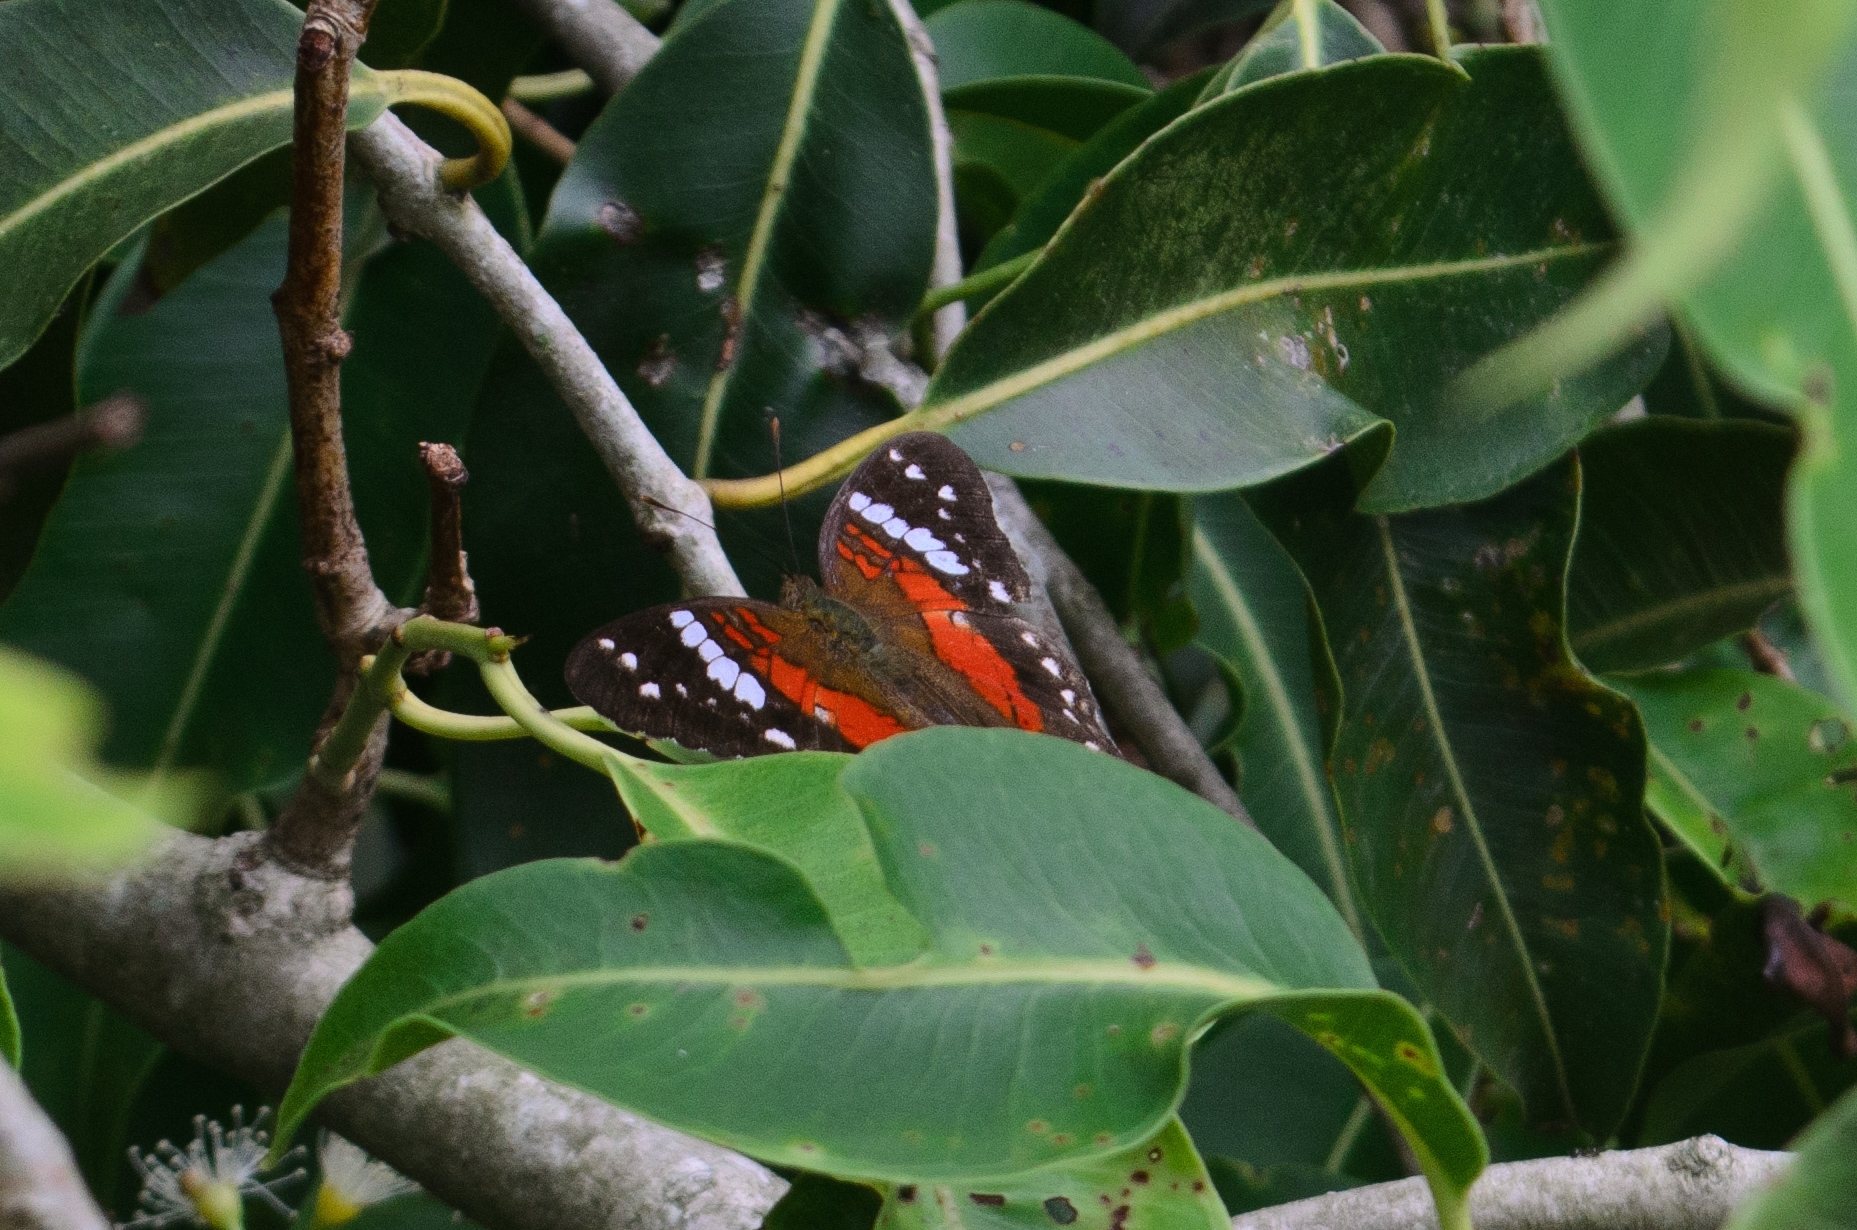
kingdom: Animalia
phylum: Arthropoda
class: Insecta
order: Lepidoptera
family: Nymphalidae
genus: Anartia
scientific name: Anartia amathea
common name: Red peacock
